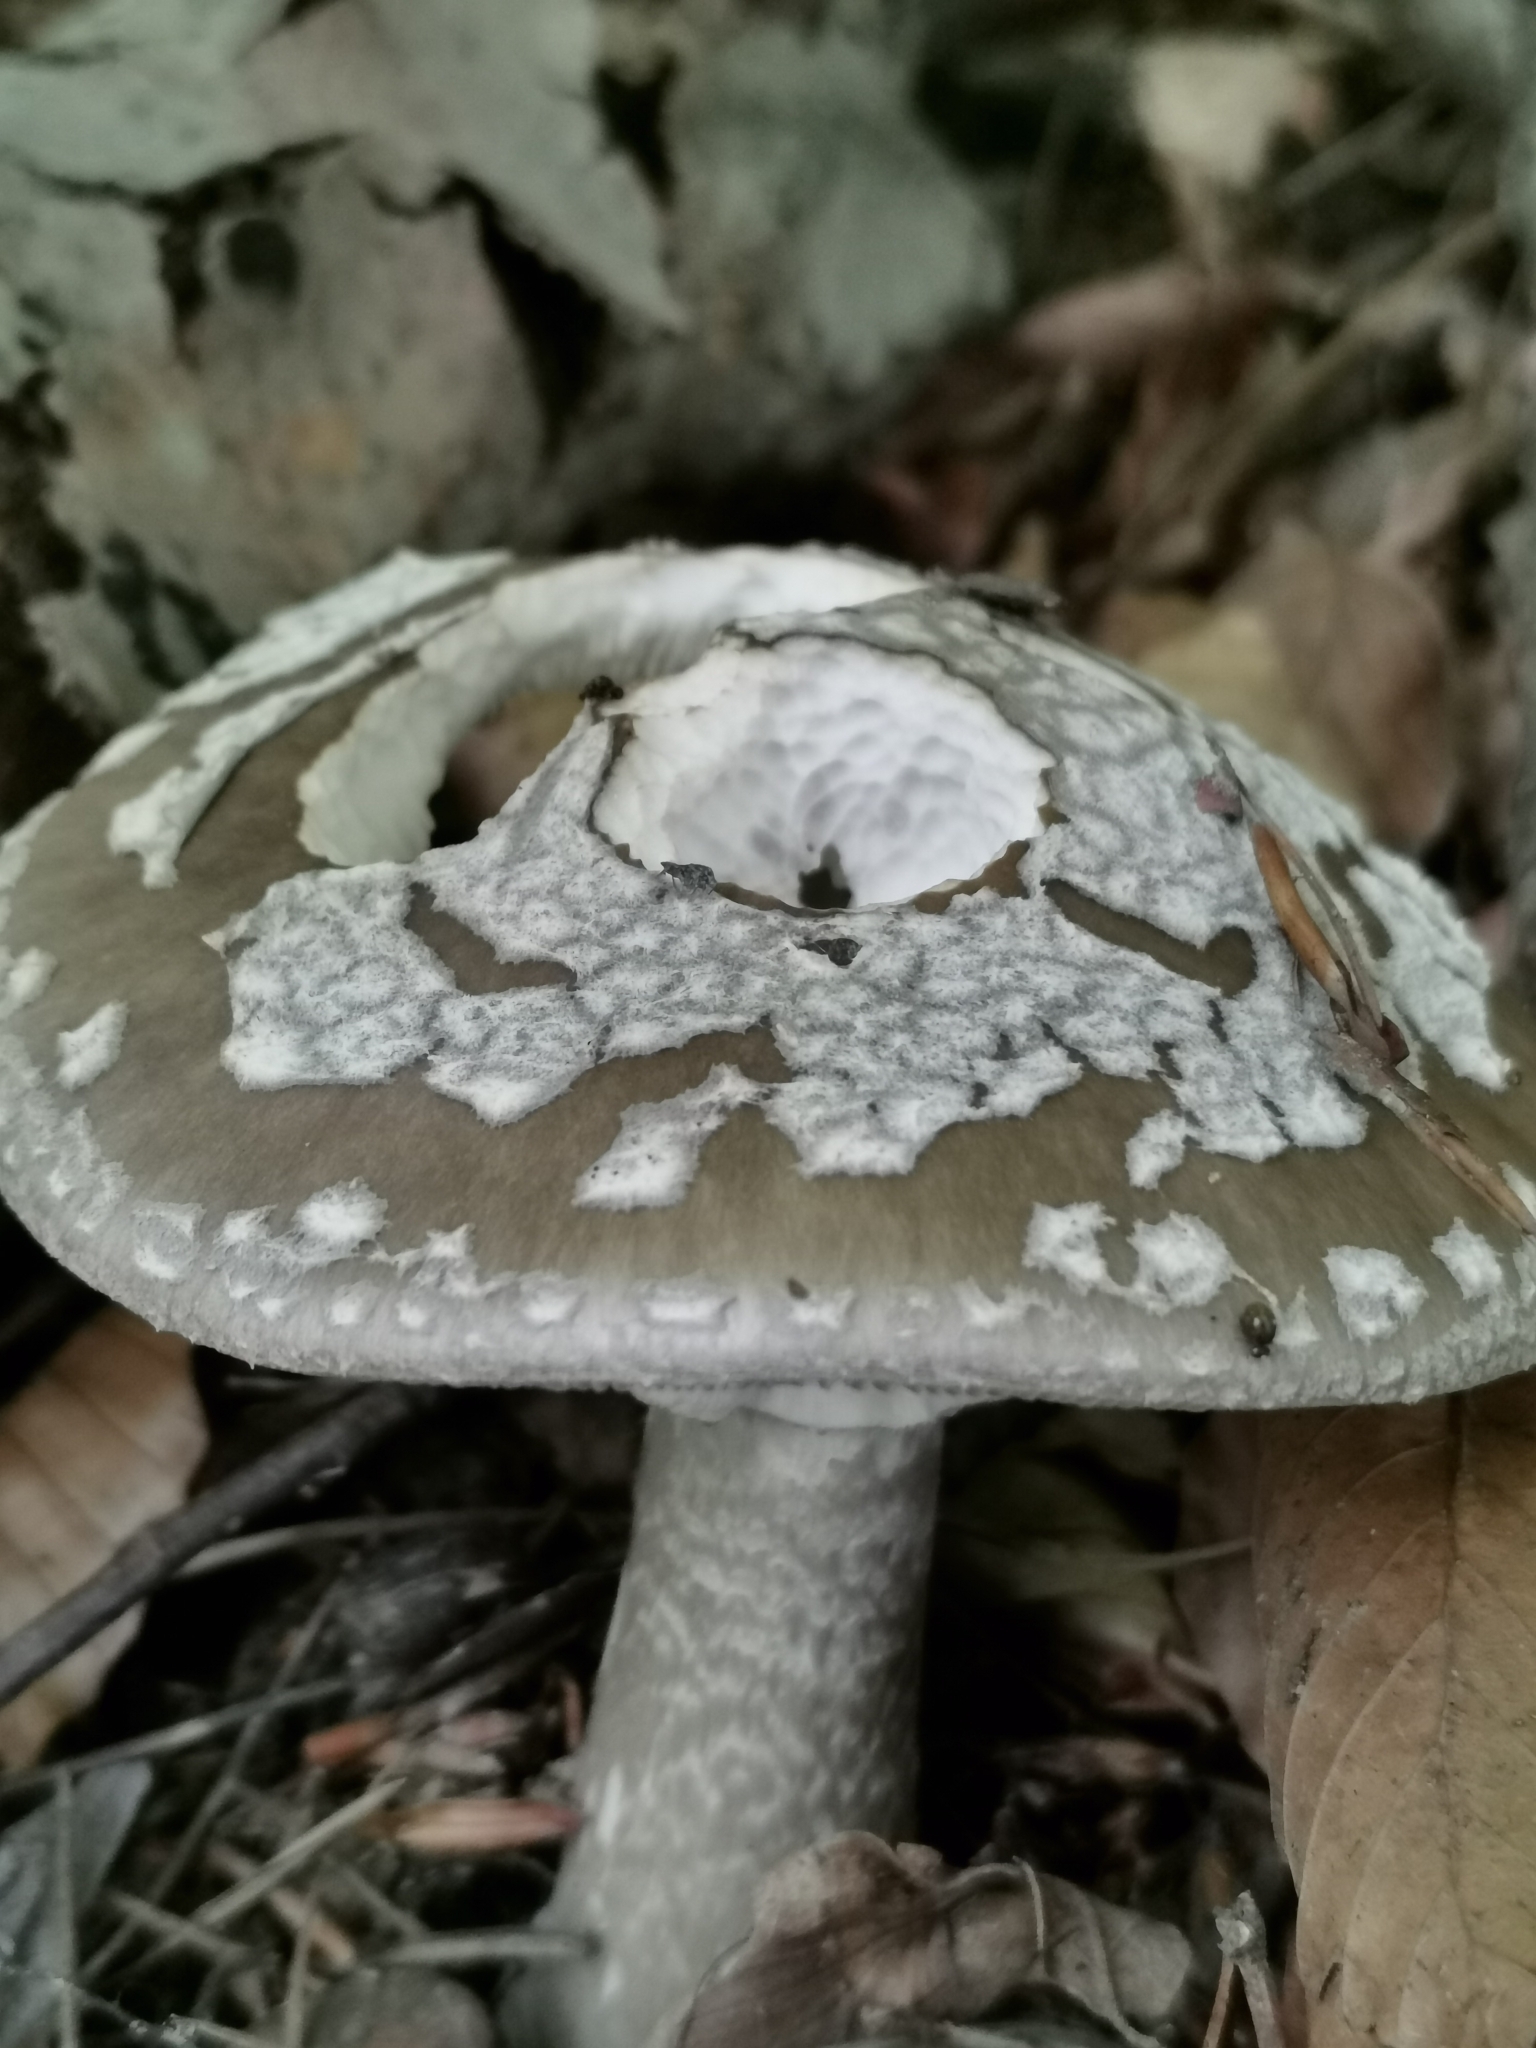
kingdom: Fungi
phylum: Basidiomycota
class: Agaricomycetes
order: Agaricales
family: Amanitaceae
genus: Amanita
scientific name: Amanita excelsa
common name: European false blusher
